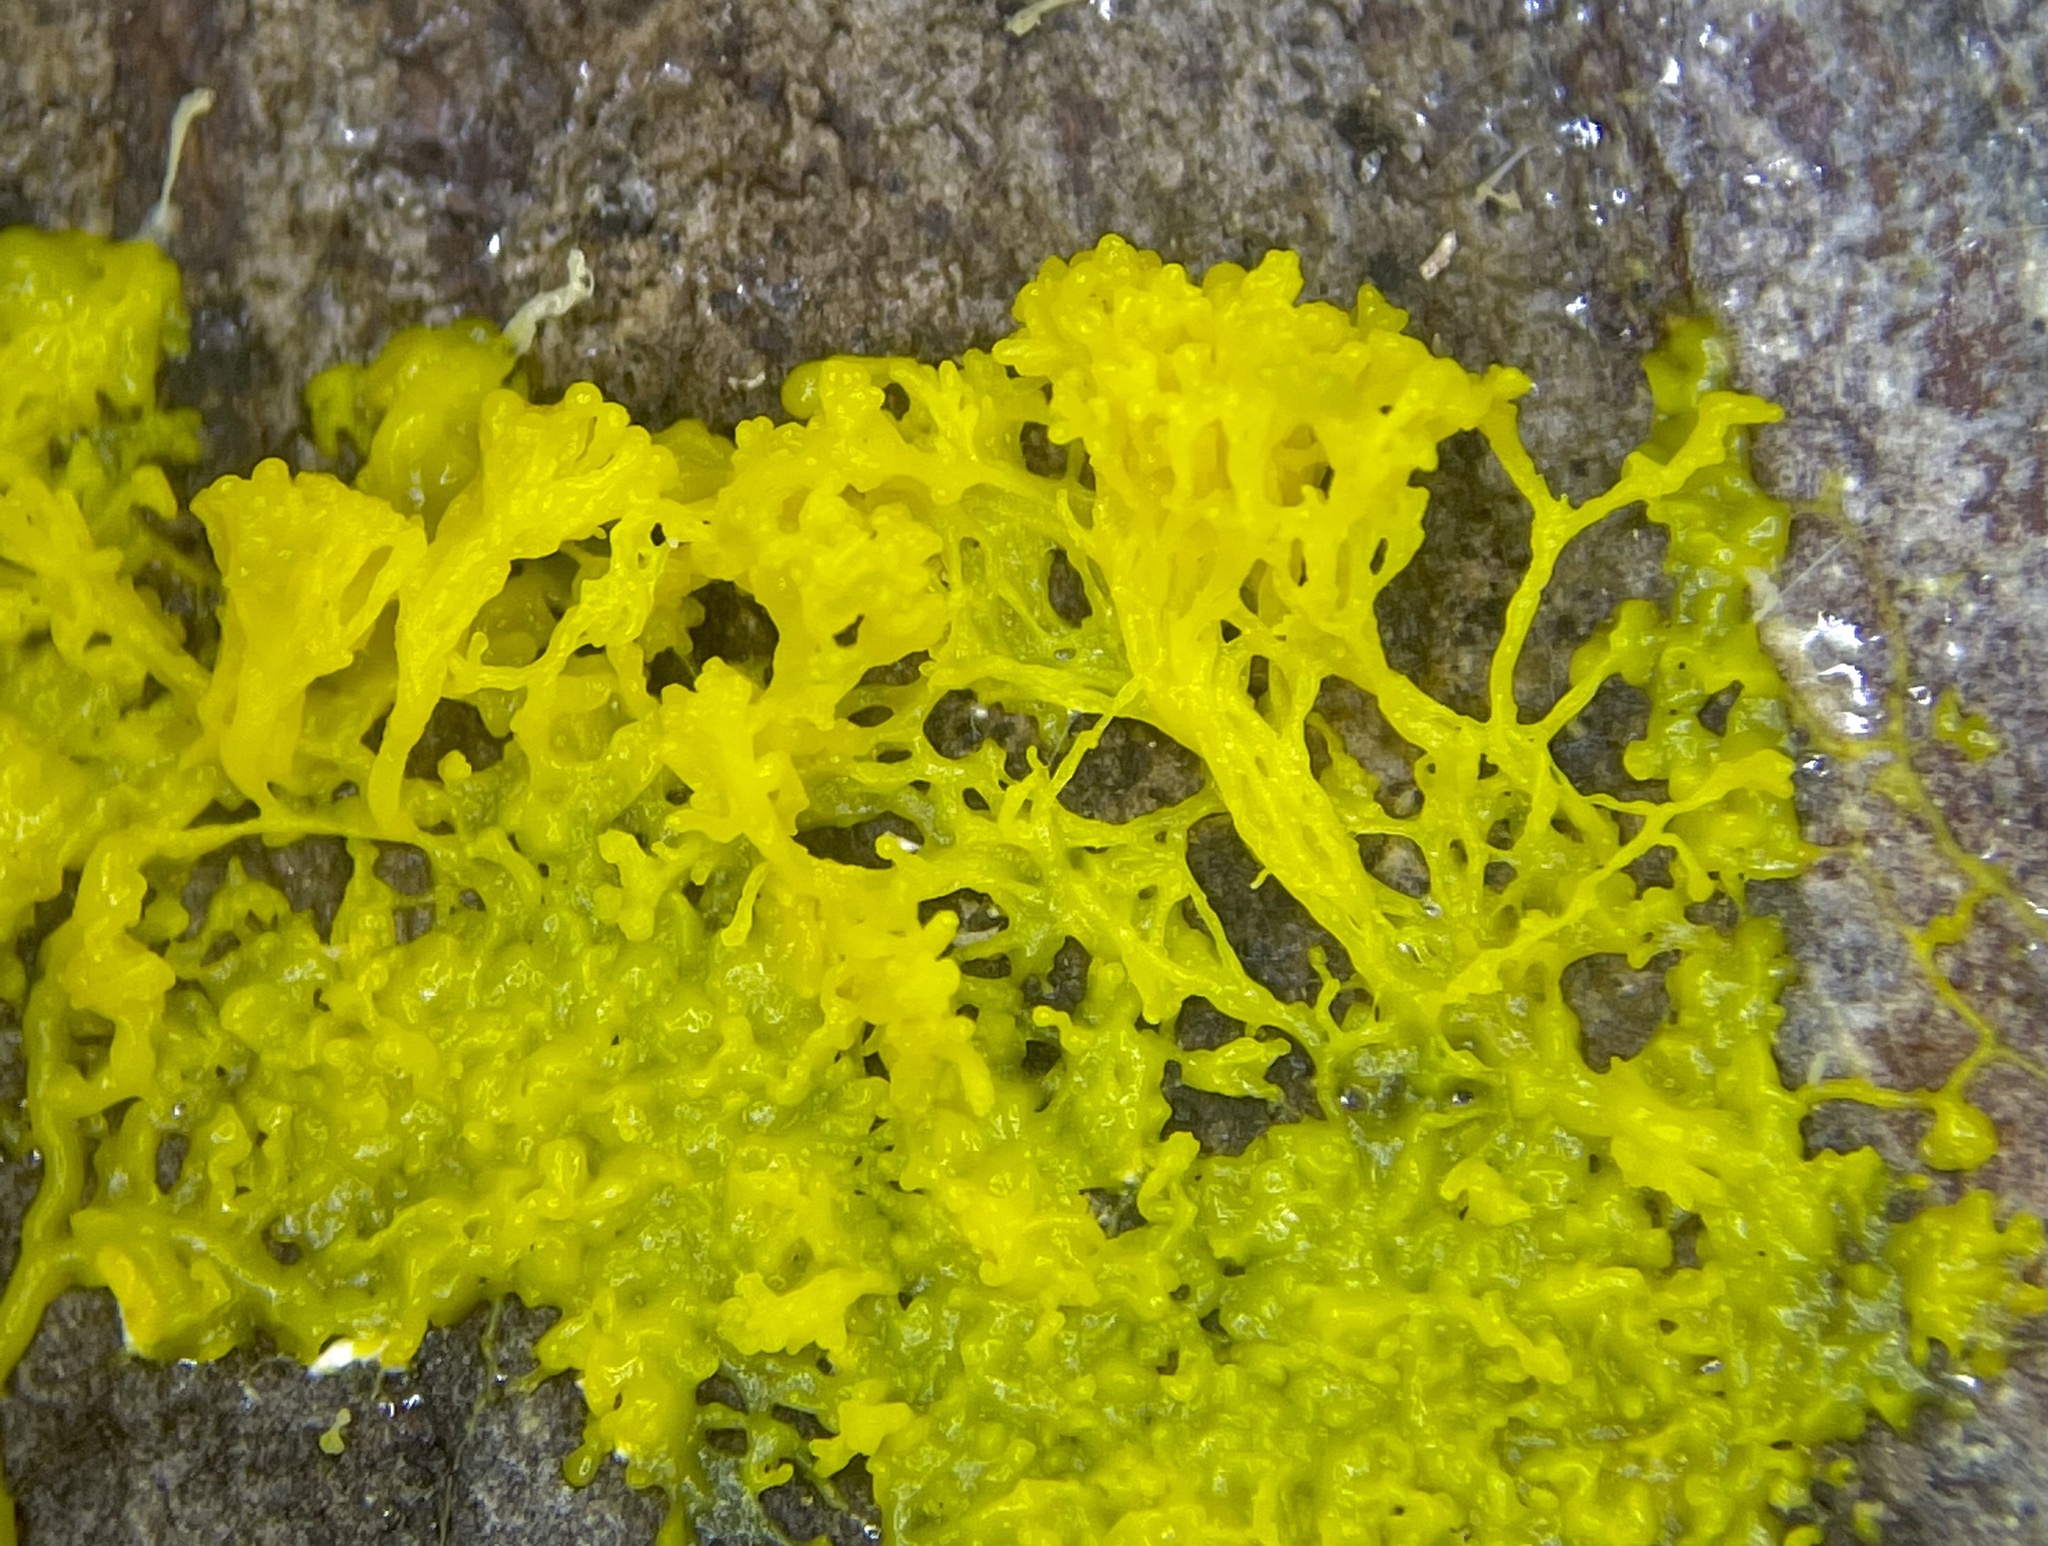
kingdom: Protozoa
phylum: Mycetozoa
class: Myxomycetes
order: Physarales
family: Physaraceae
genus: Physarum
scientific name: Physarum polycephalum
